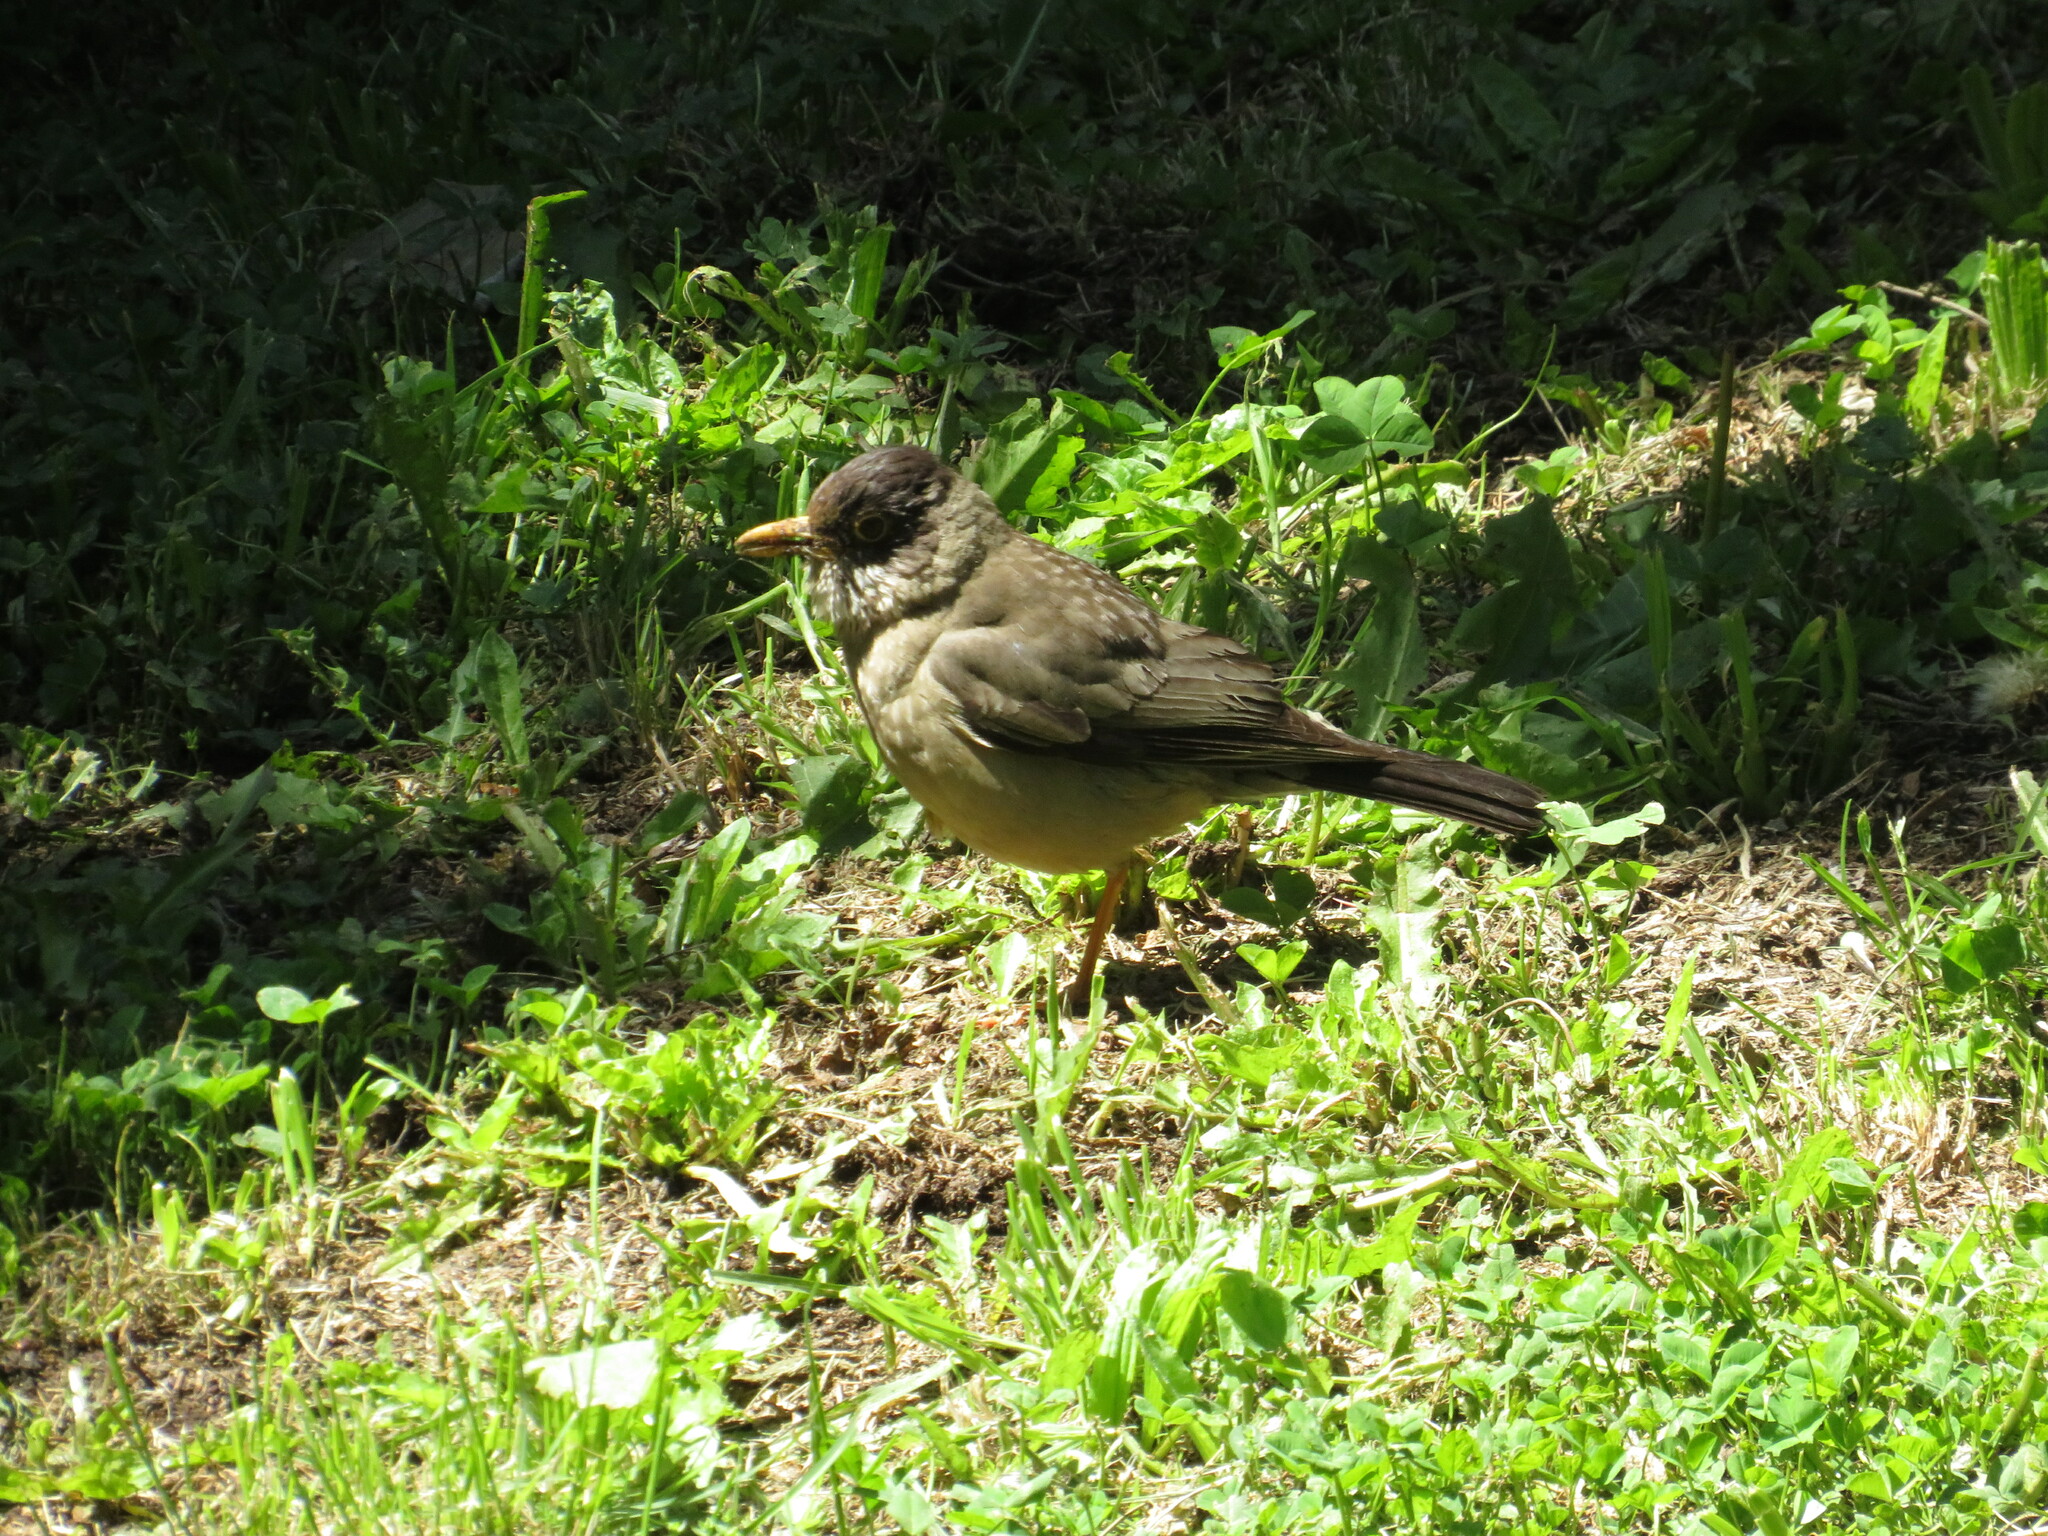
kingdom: Animalia
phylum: Chordata
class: Aves
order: Passeriformes
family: Turdidae
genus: Turdus
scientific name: Turdus falcklandii
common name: Austral thrush
